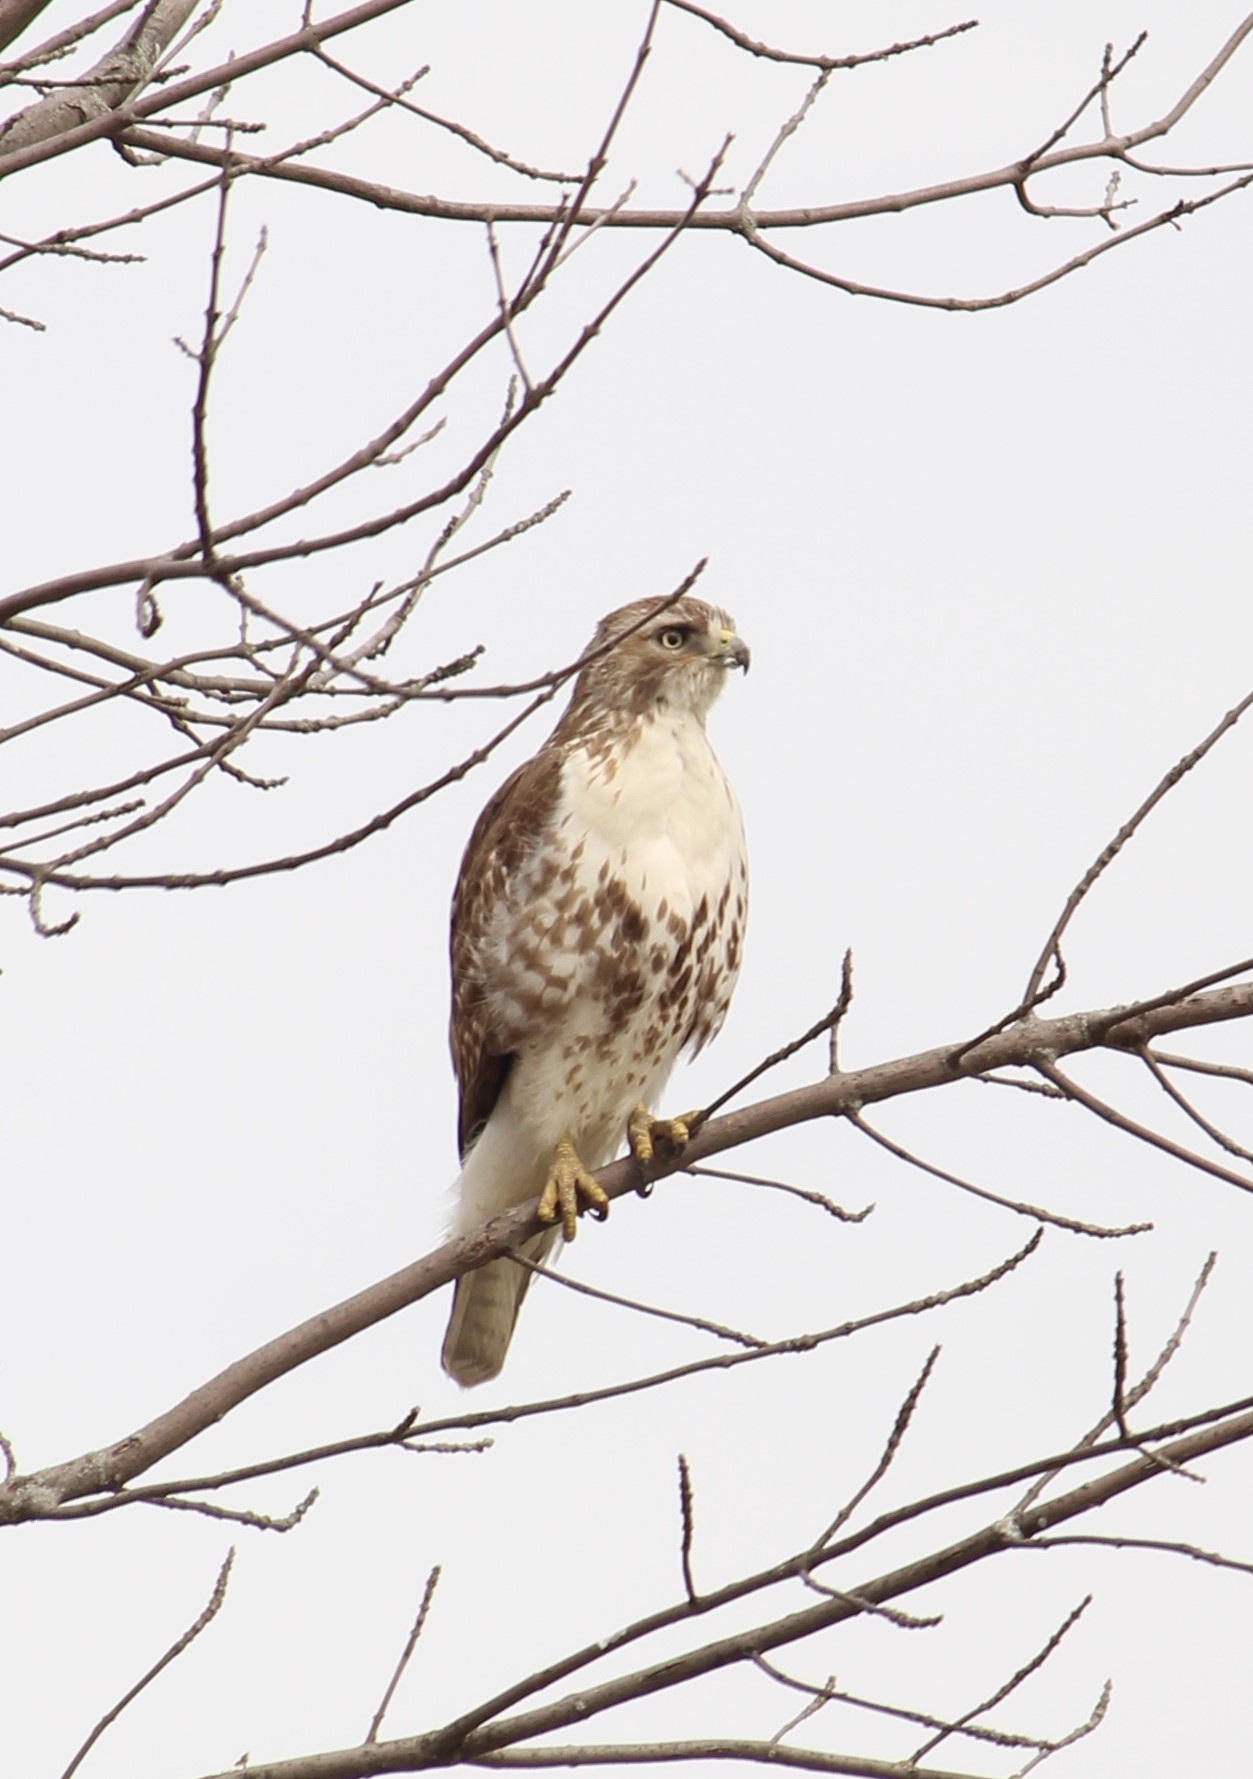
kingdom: Animalia
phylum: Chordata
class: Aves
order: Accipitriformes
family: Accipitridae
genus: Buteo
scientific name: Buteo jamaicensis
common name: Red-tailed hawk
